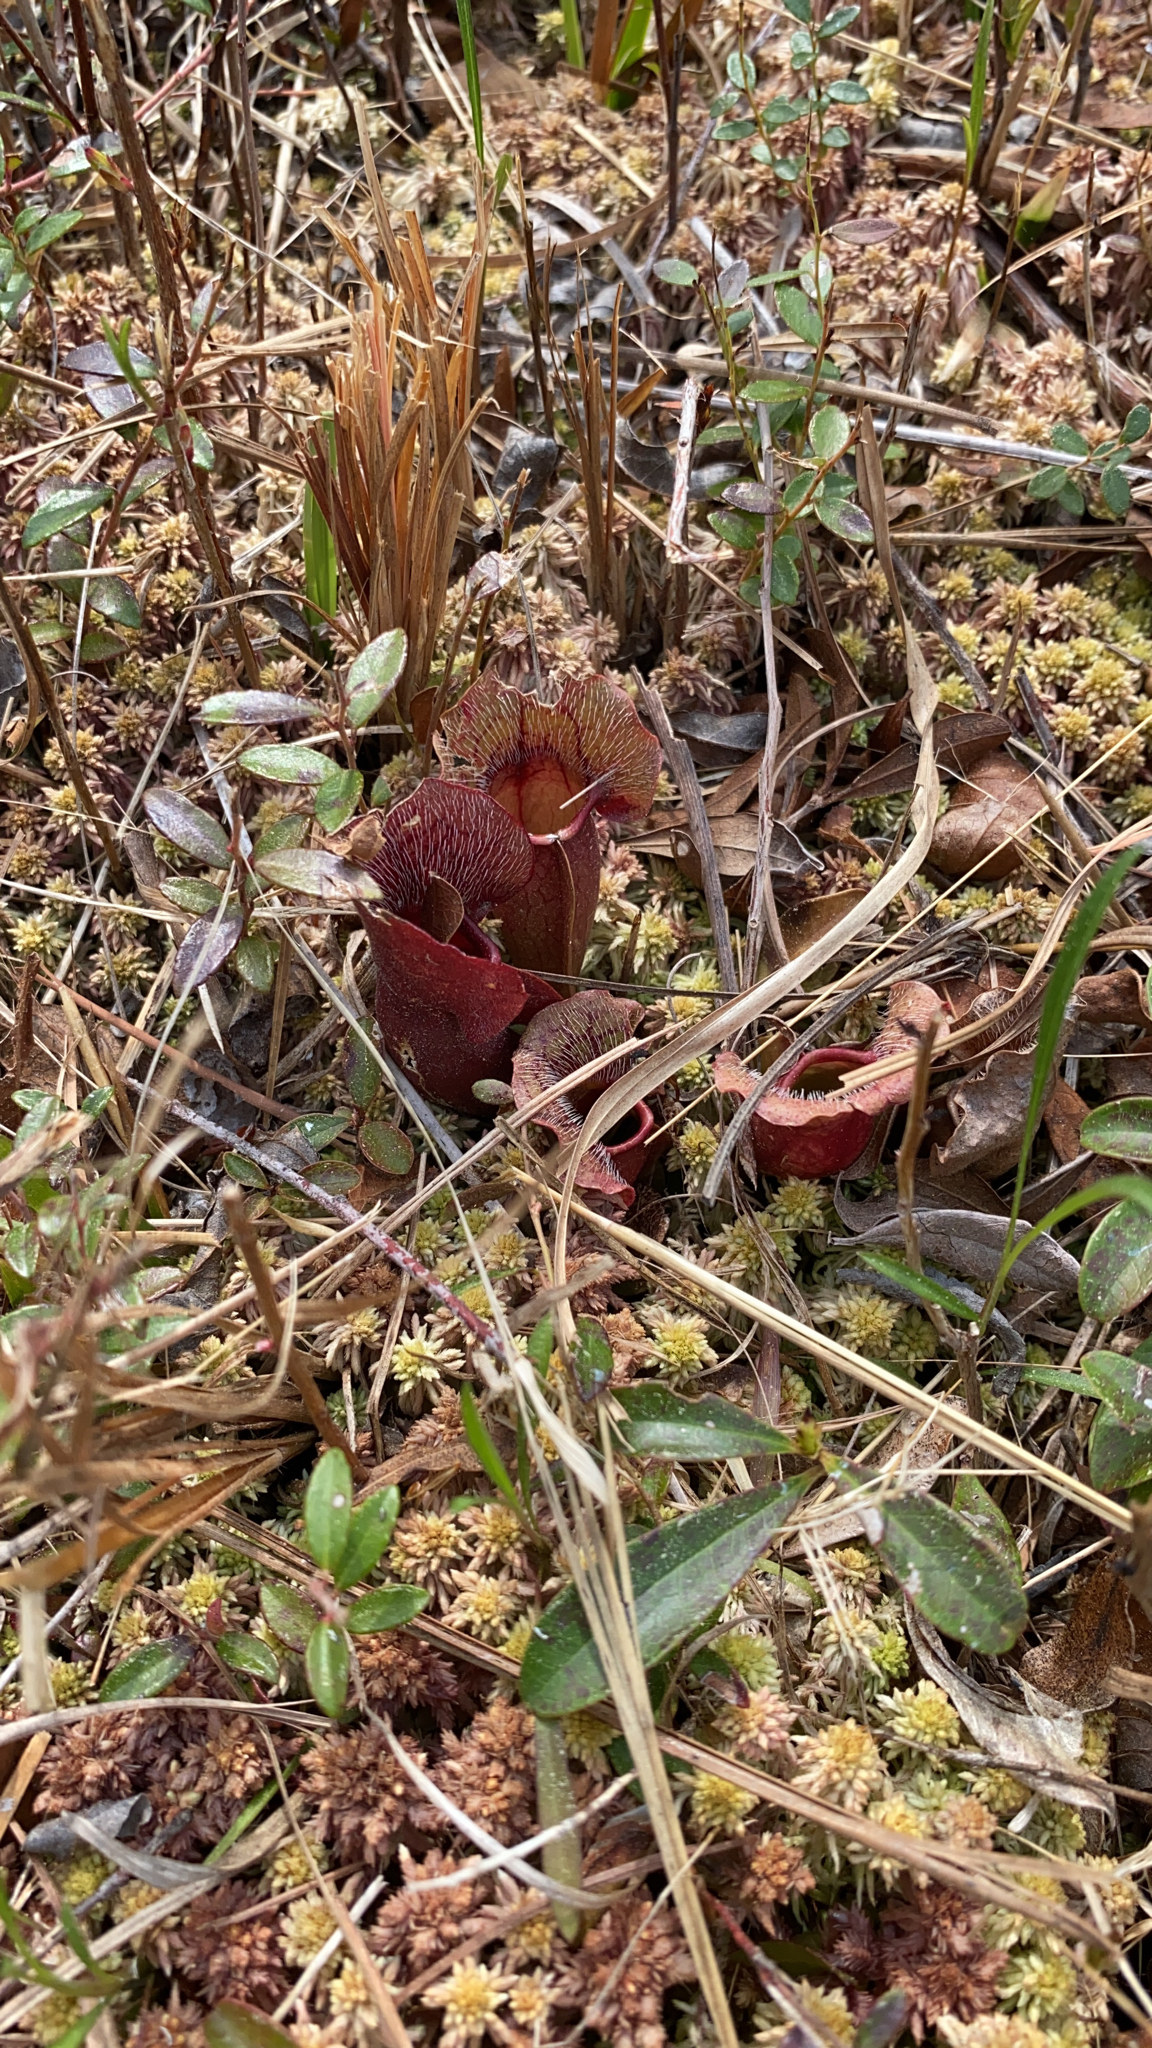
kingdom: Plantae
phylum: Tracheophyta
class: Magnoliopsida
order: Ericales
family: Sarraceniaceae
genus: Sarracenia
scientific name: Sarracenia purpurea
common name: Pitcherplant
